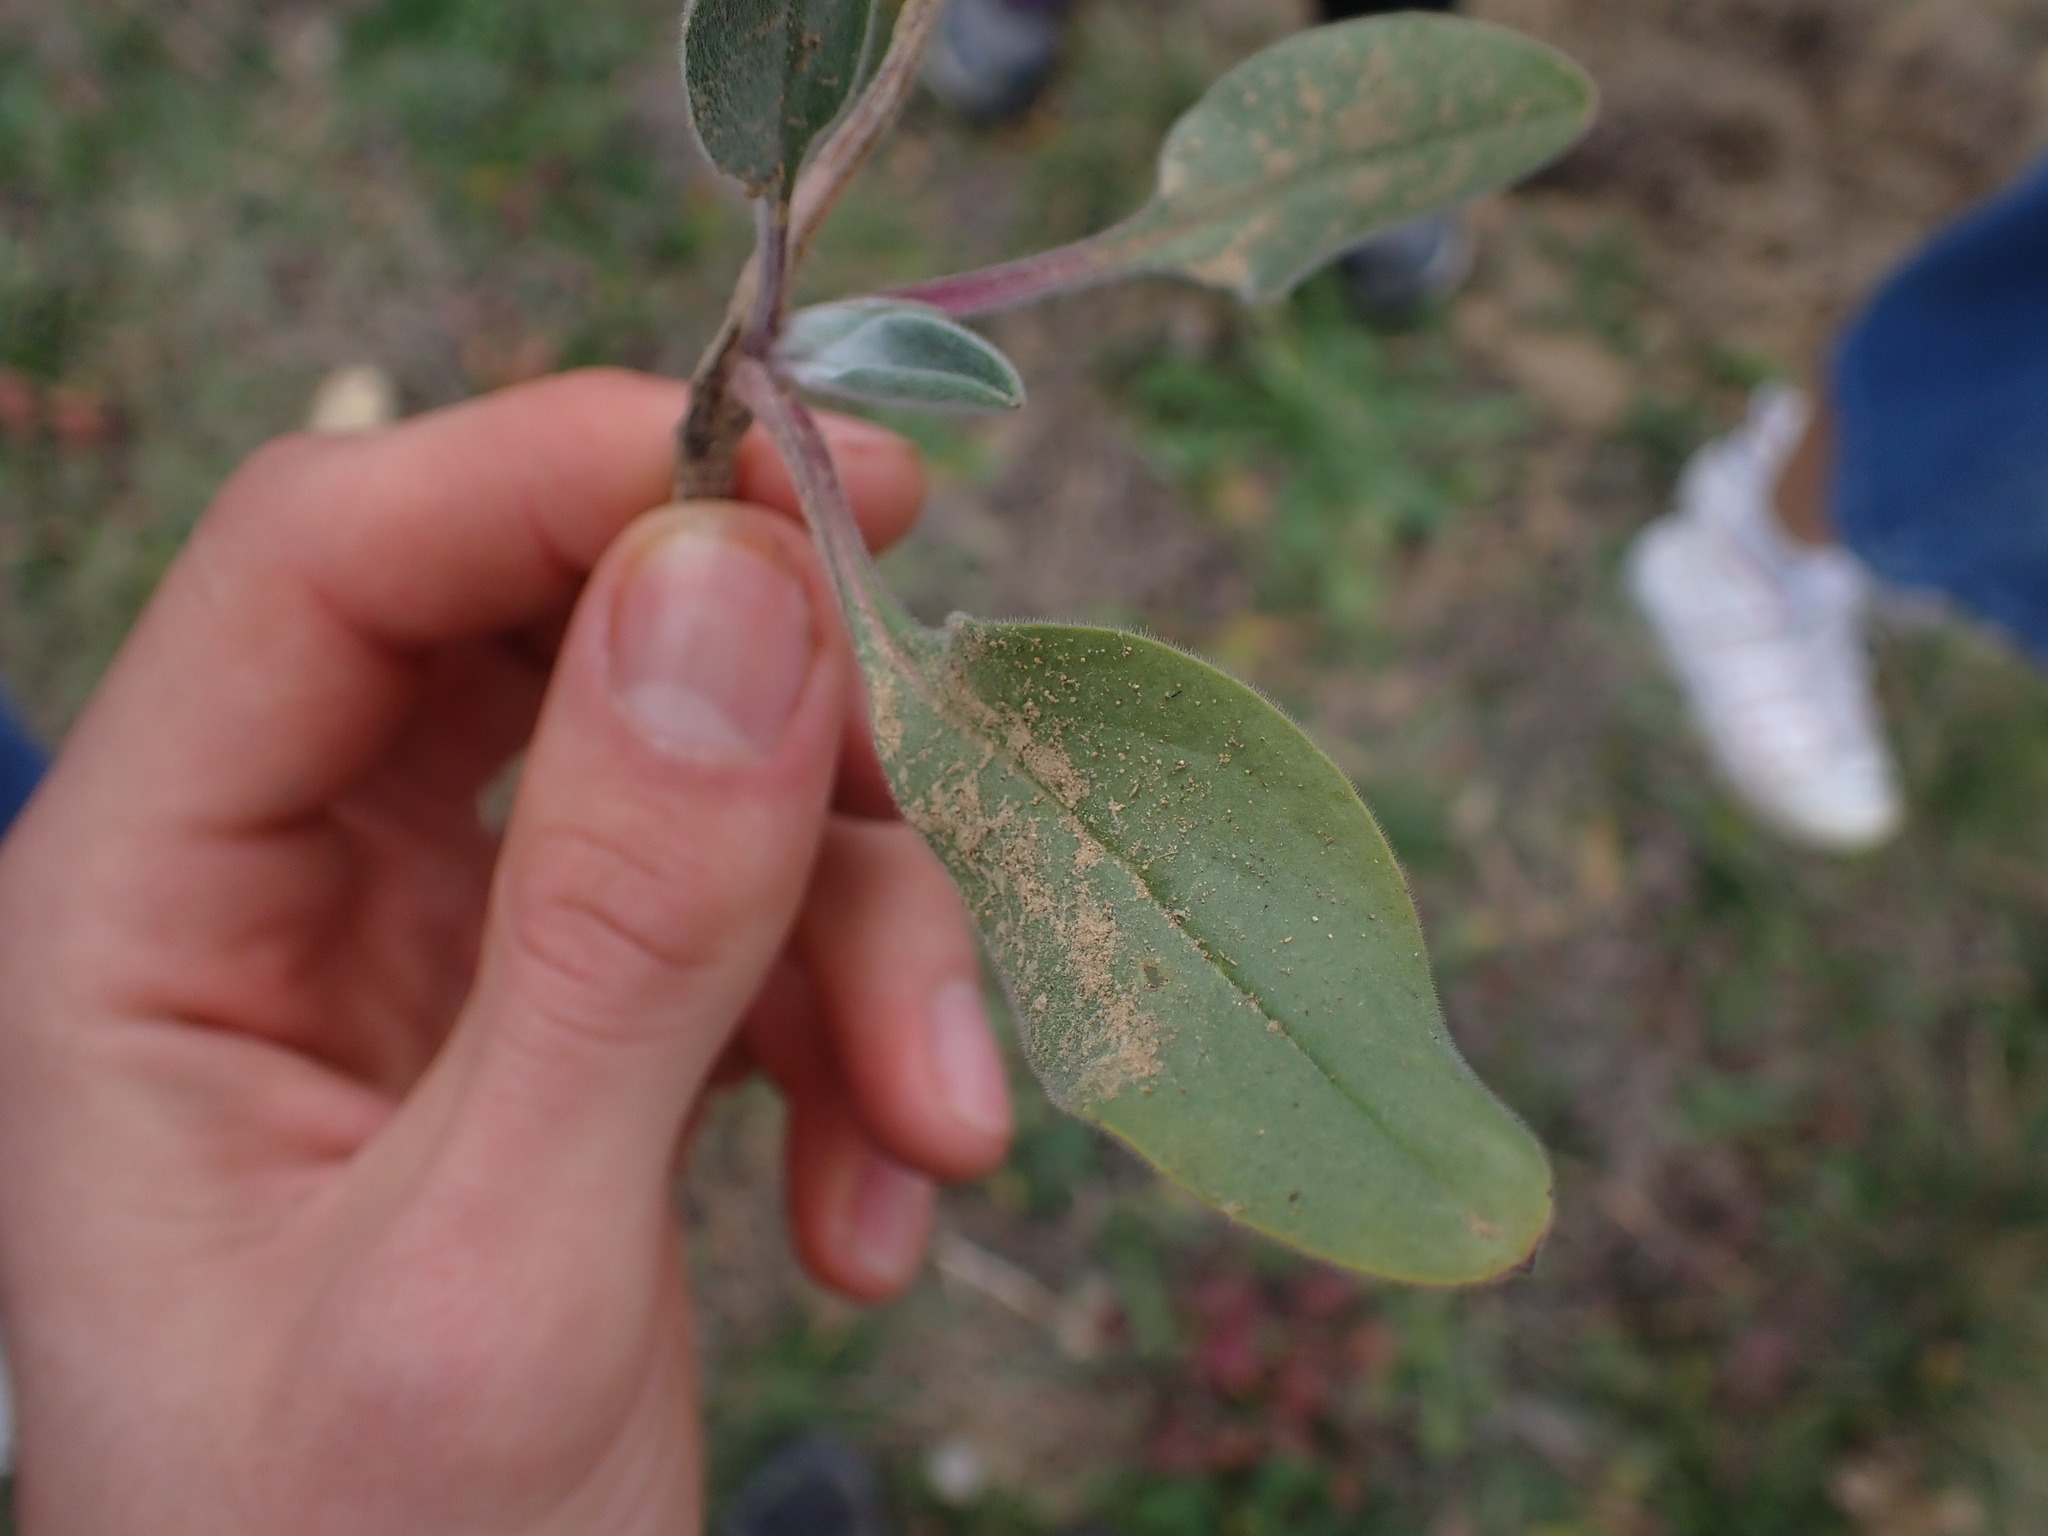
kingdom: Plantae
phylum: Tracheophyta
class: Magnoliopsida
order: Boraginales
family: Boraginaceae
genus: Cynoglossum
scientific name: Cynoglossum creticum
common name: Blue hound's tongue
